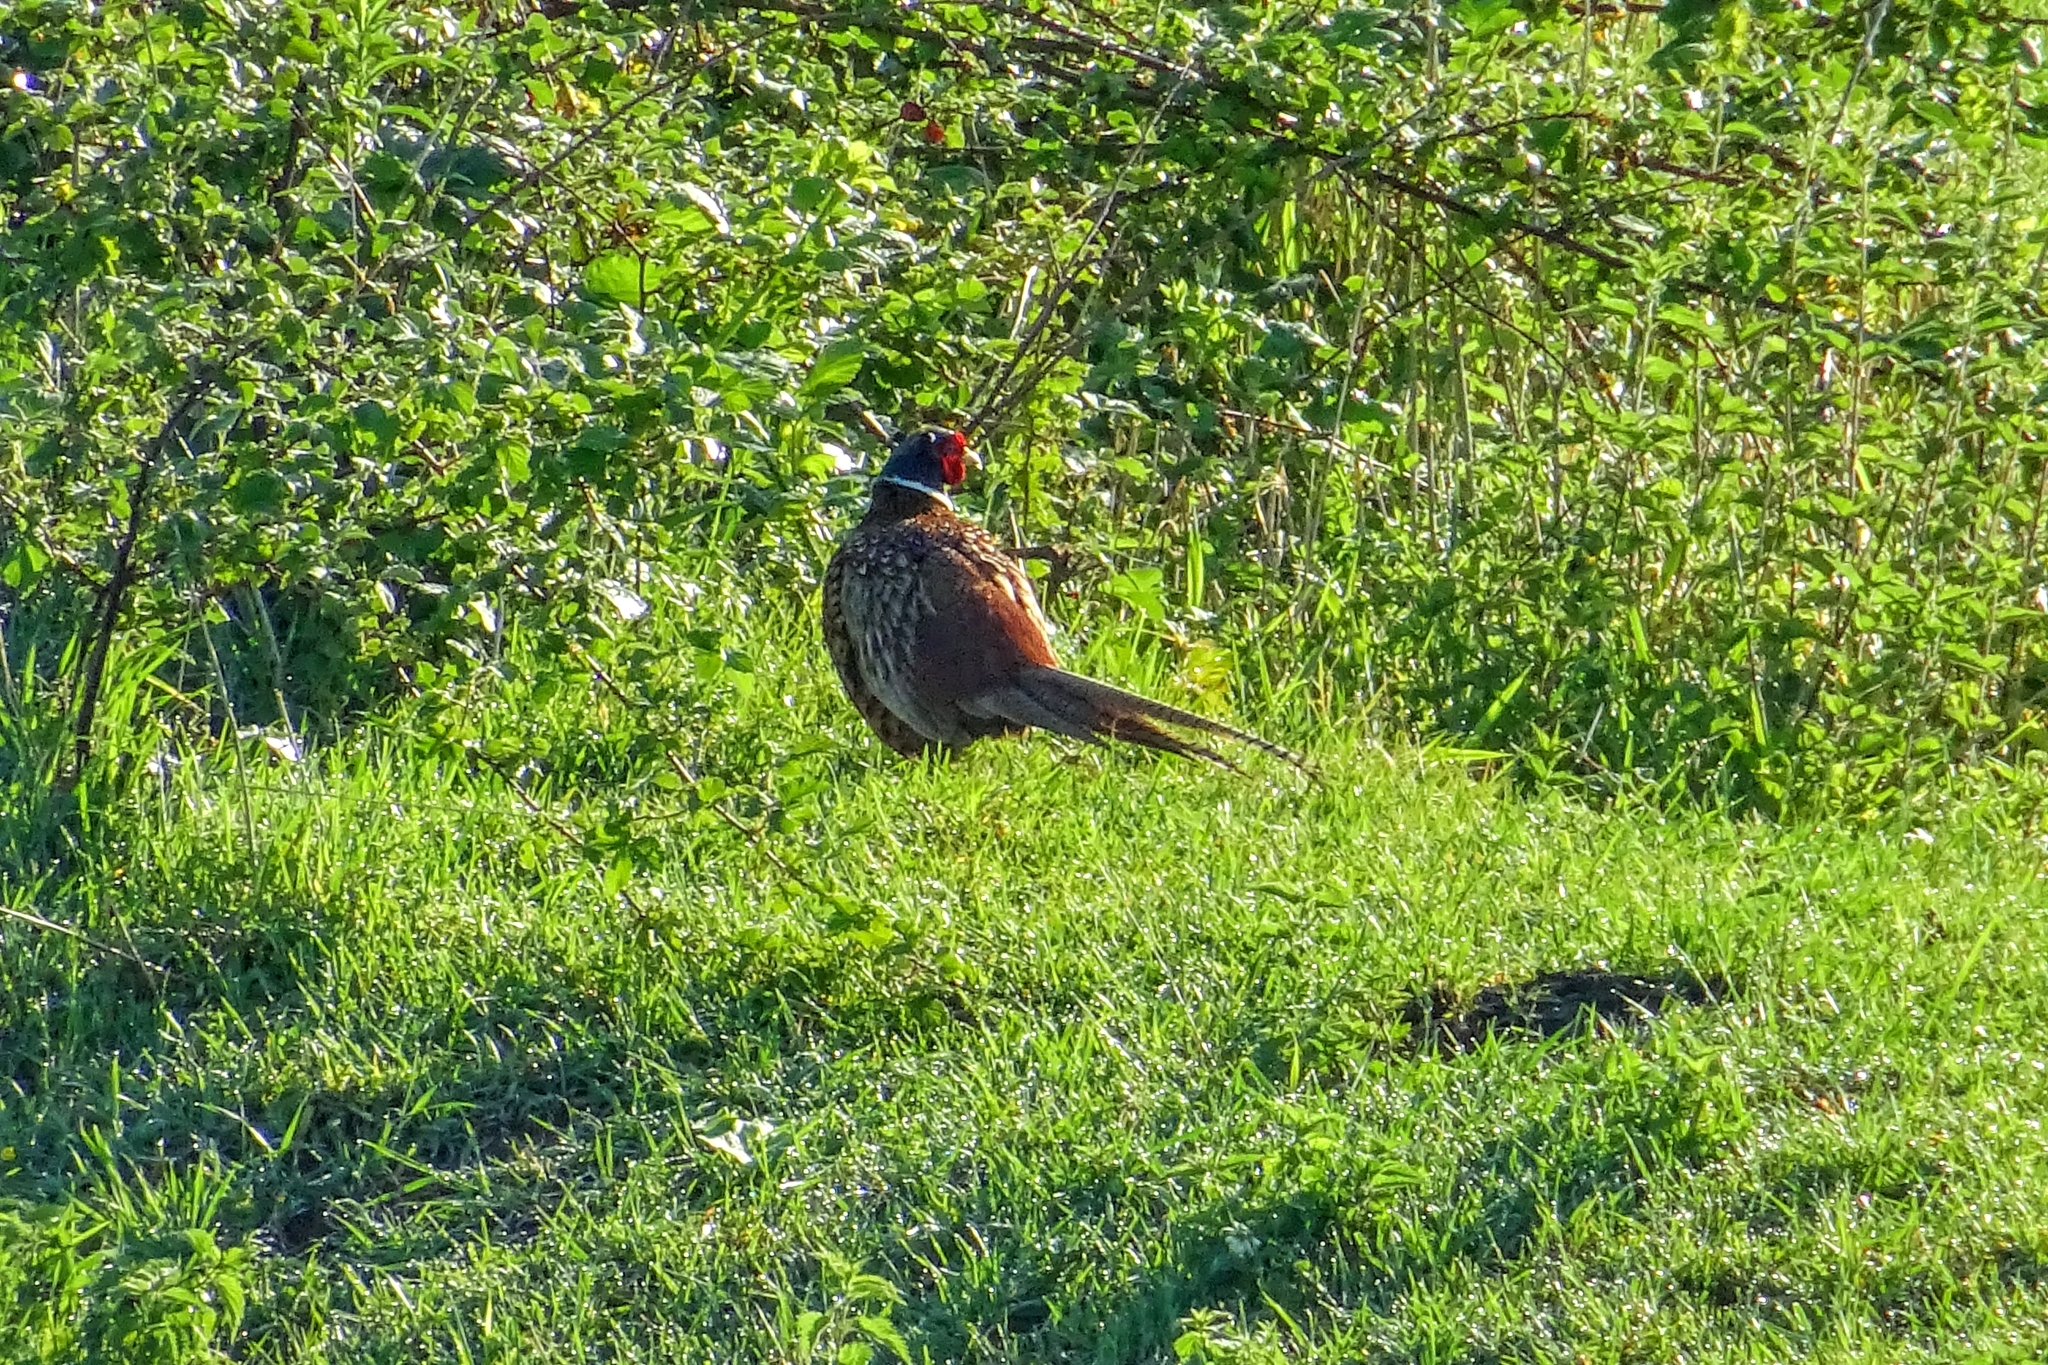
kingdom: Animalia
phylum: Chordata
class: Aves
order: Galliformes
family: Phasianidae
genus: Phasianus
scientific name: Phasianus colchicus
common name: Common pheasant
